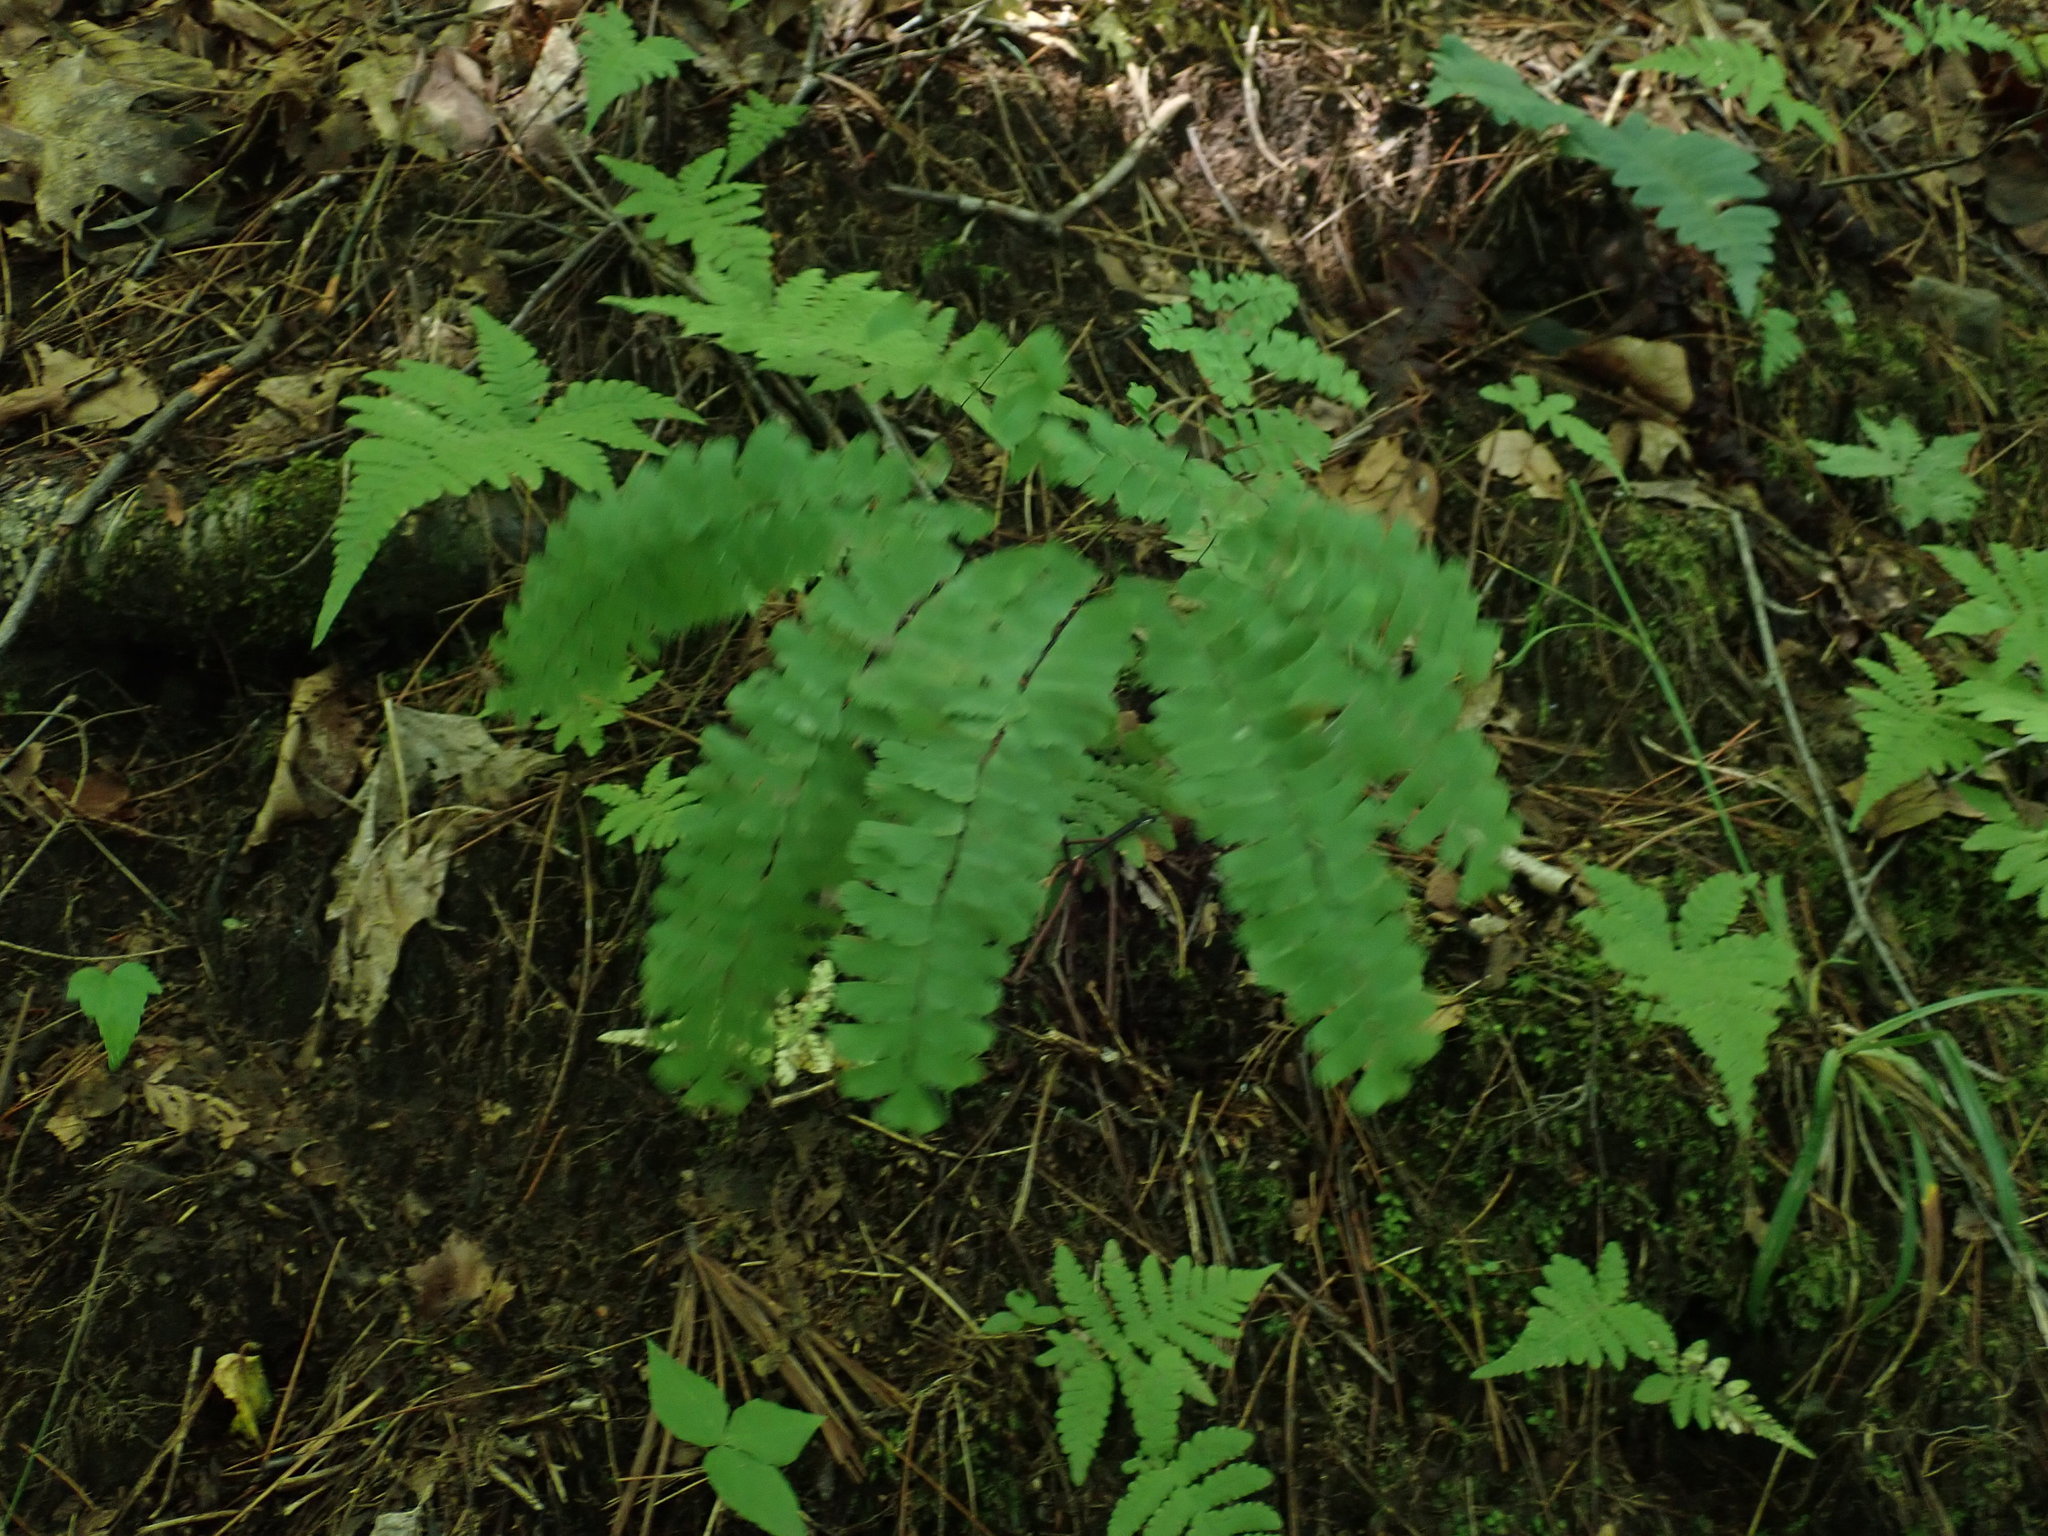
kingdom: Plantae
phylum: Tracheophyta
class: Polypodiopsida
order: Polypodiales
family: Pteridaceae
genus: Adiantum
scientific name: Adiantum pedatum
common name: Five-finger fern
